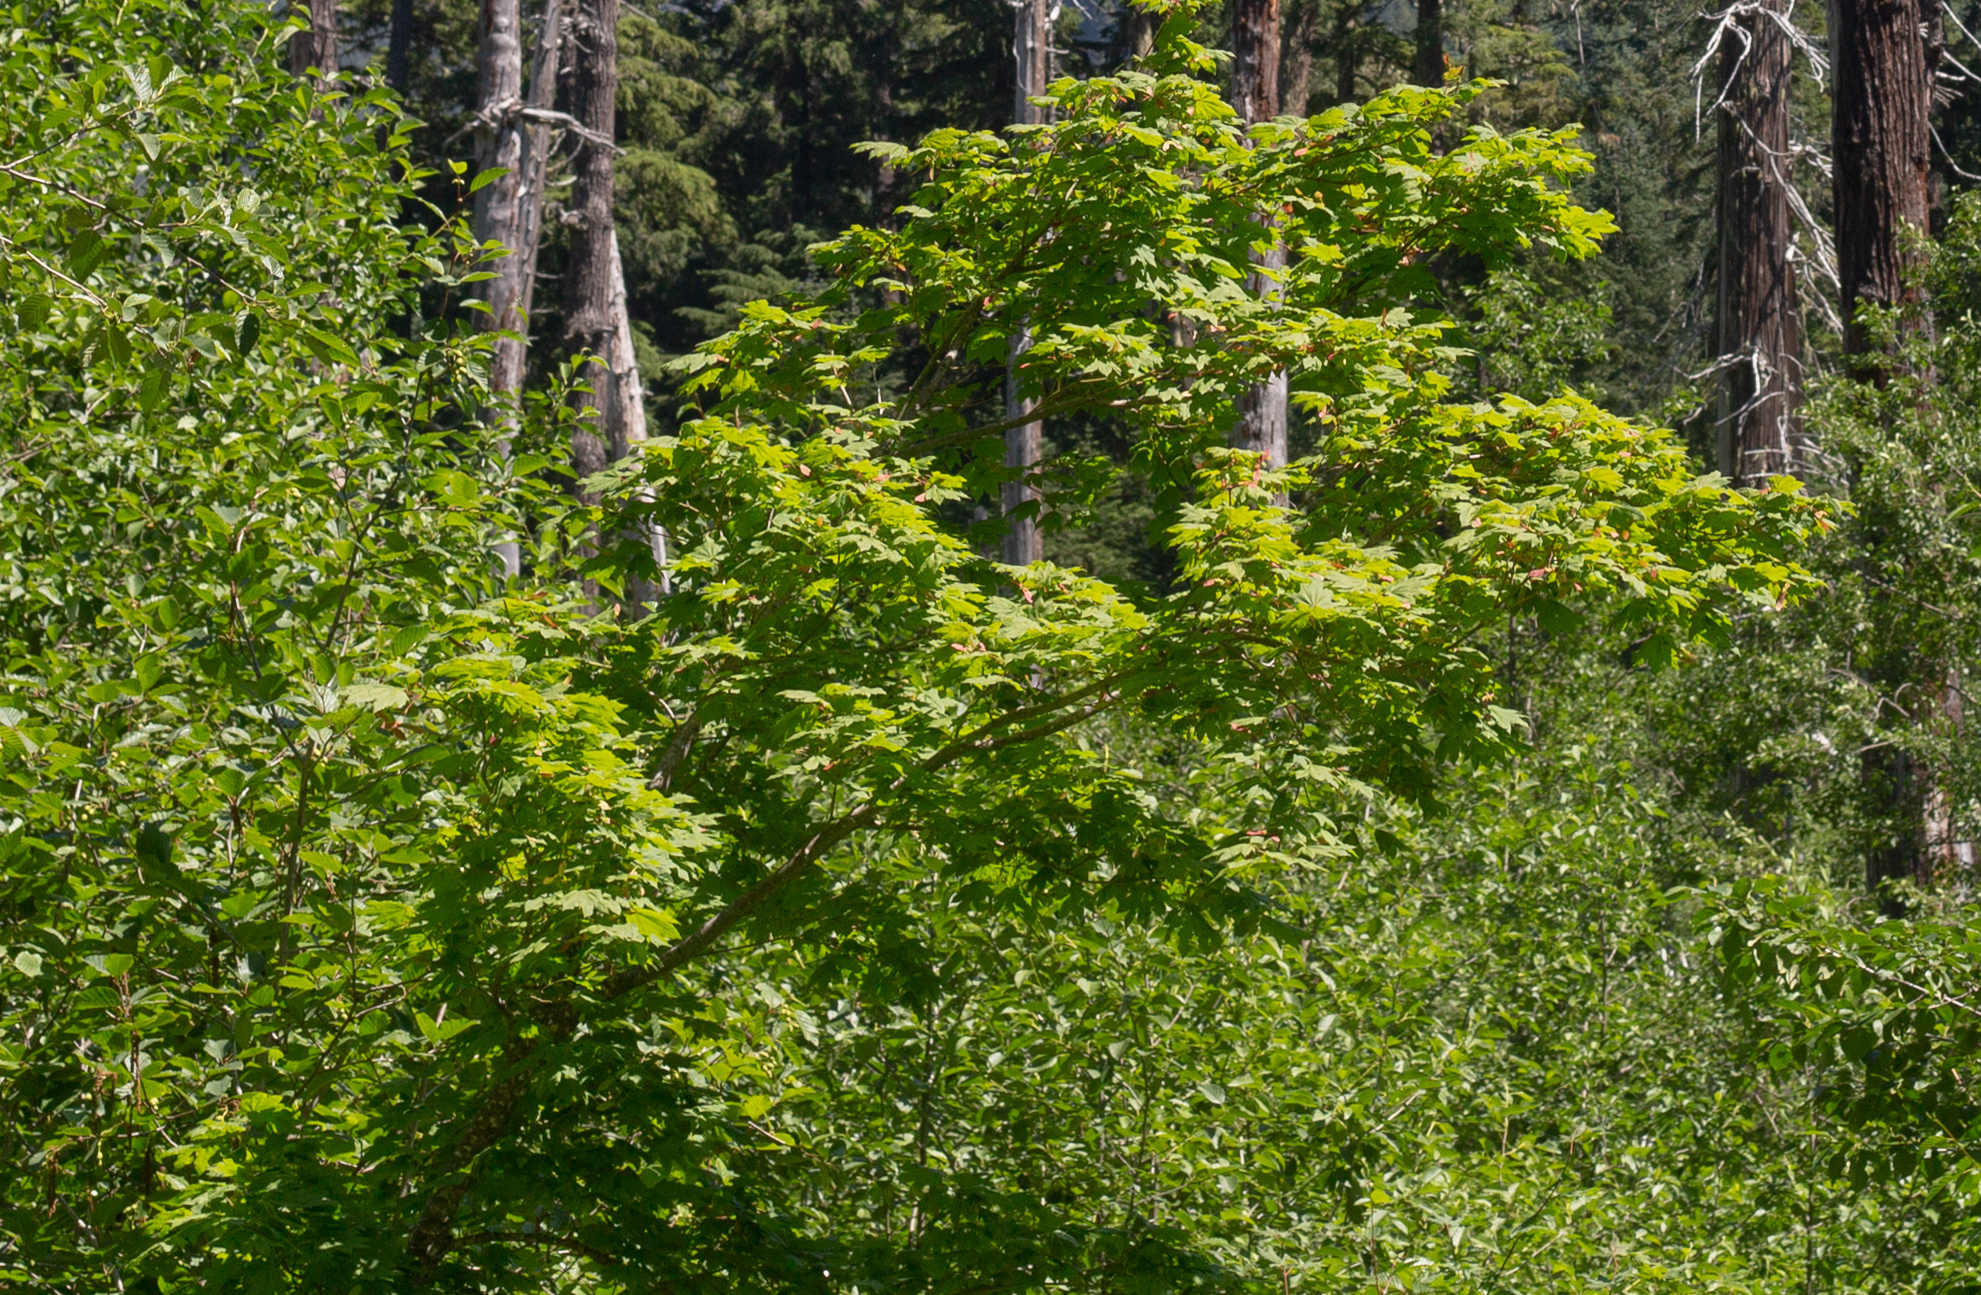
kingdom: Plantae
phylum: Tracheophyta
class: Magnoliopsida
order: Sapindales
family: Sapindaceae
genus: Acer
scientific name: Acer circinatum
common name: Vine maple
